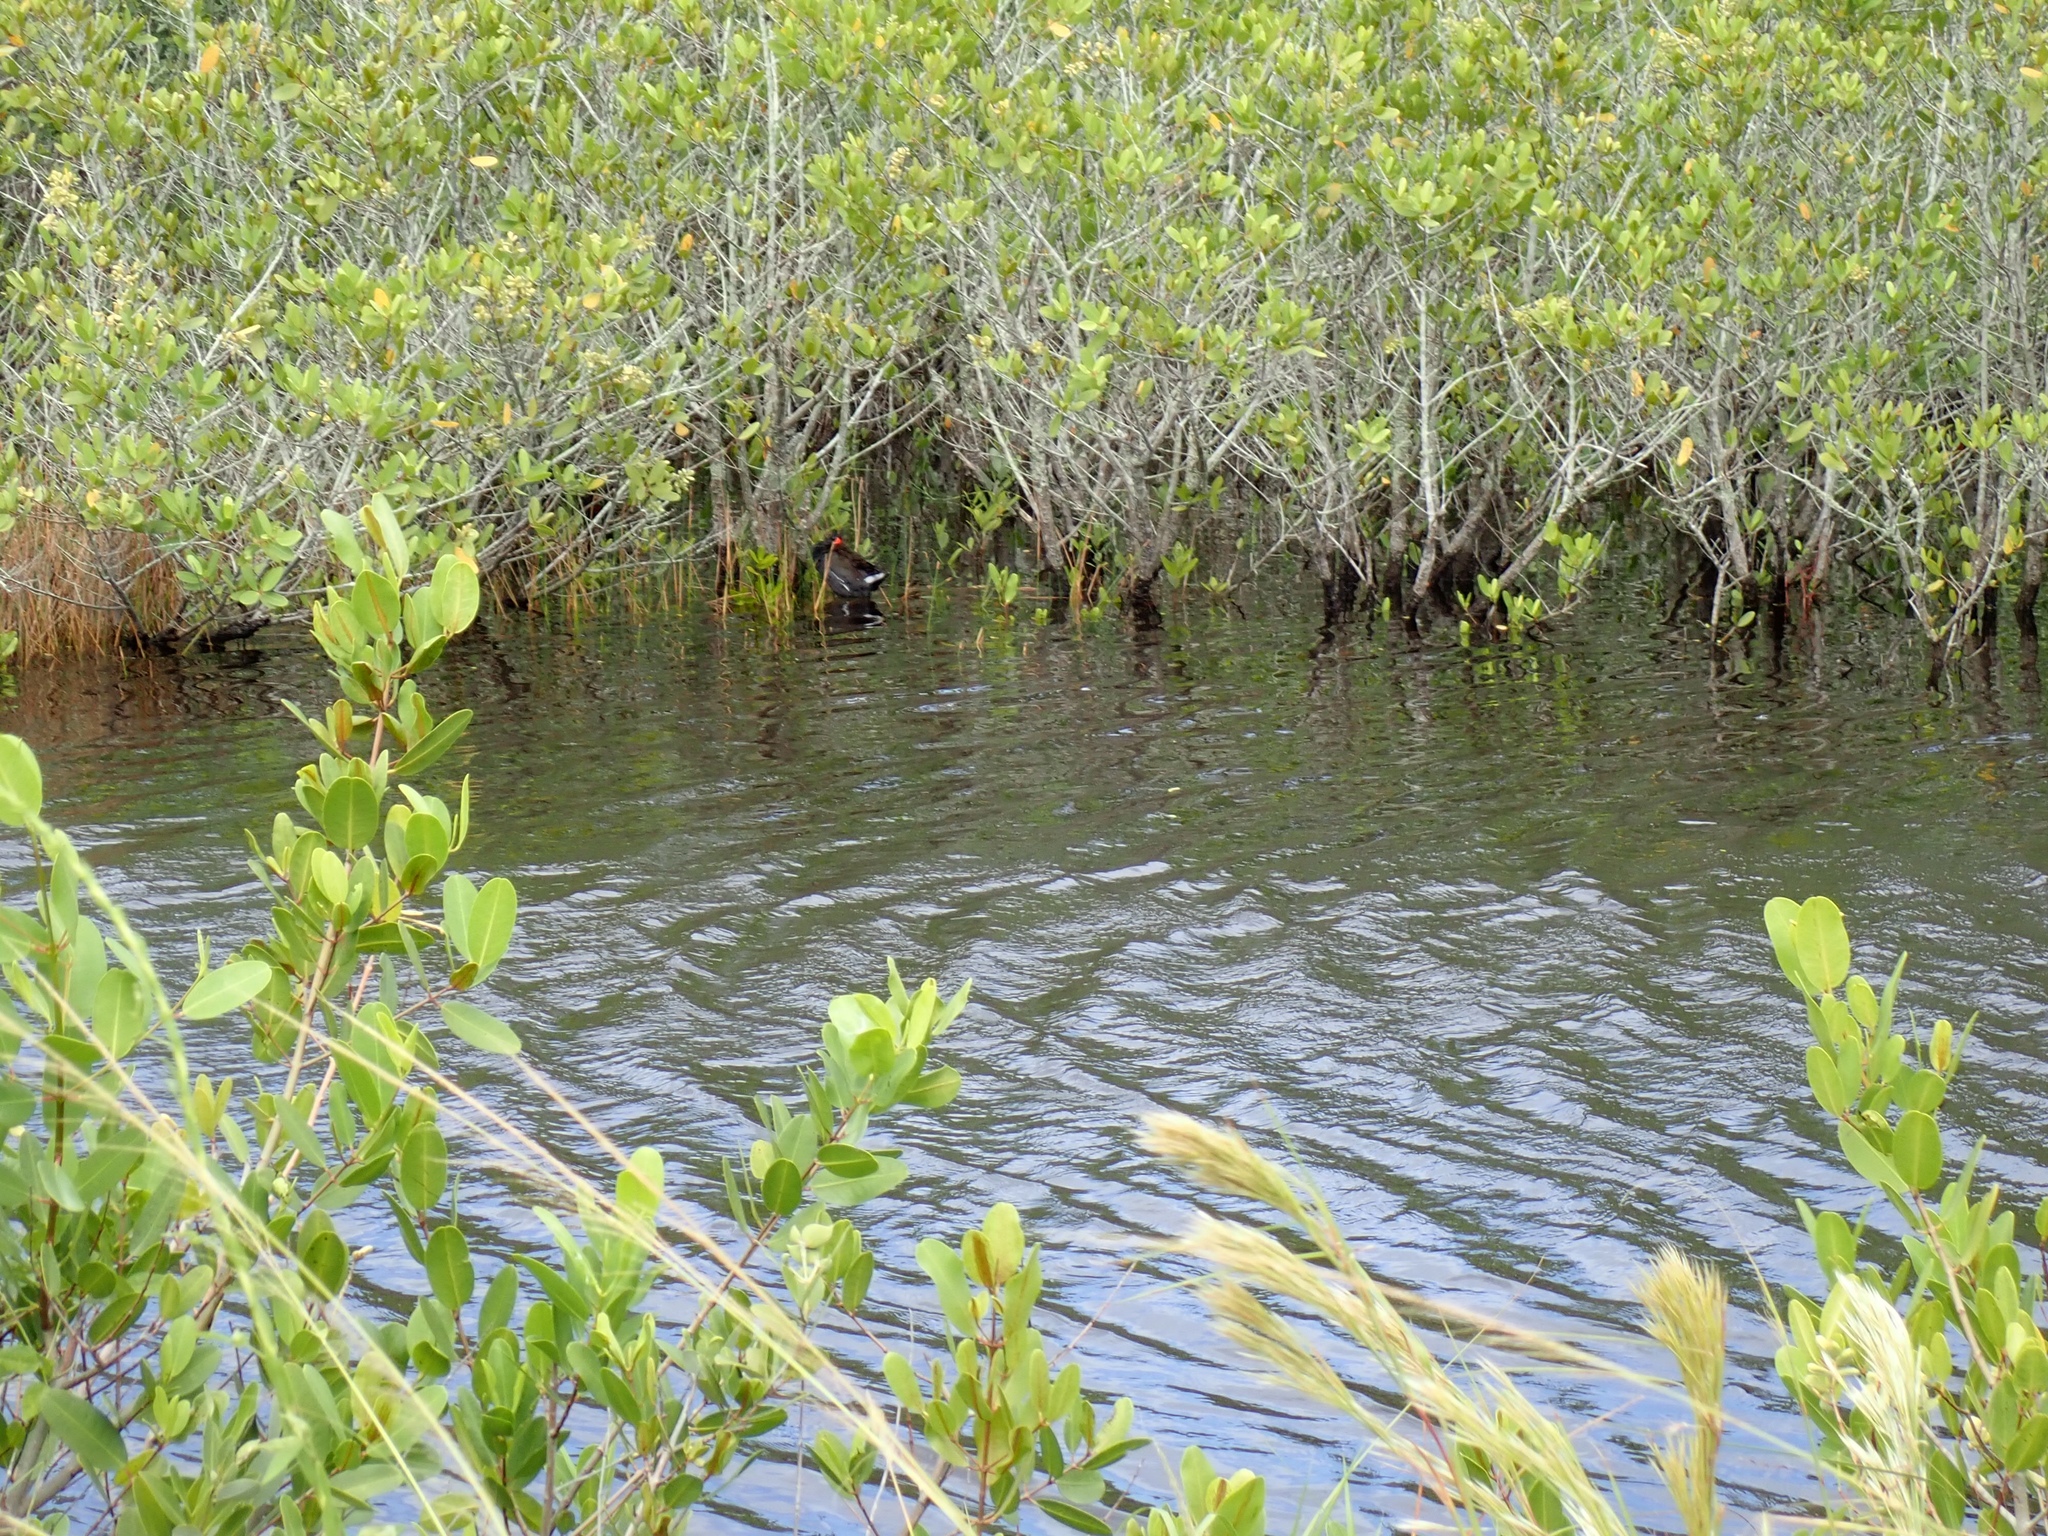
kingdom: Animalia
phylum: Chordata
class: Aves
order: Gruiformes
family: Rallidae
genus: Gallinula
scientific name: Gallinula chloropus
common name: Common moorhen
